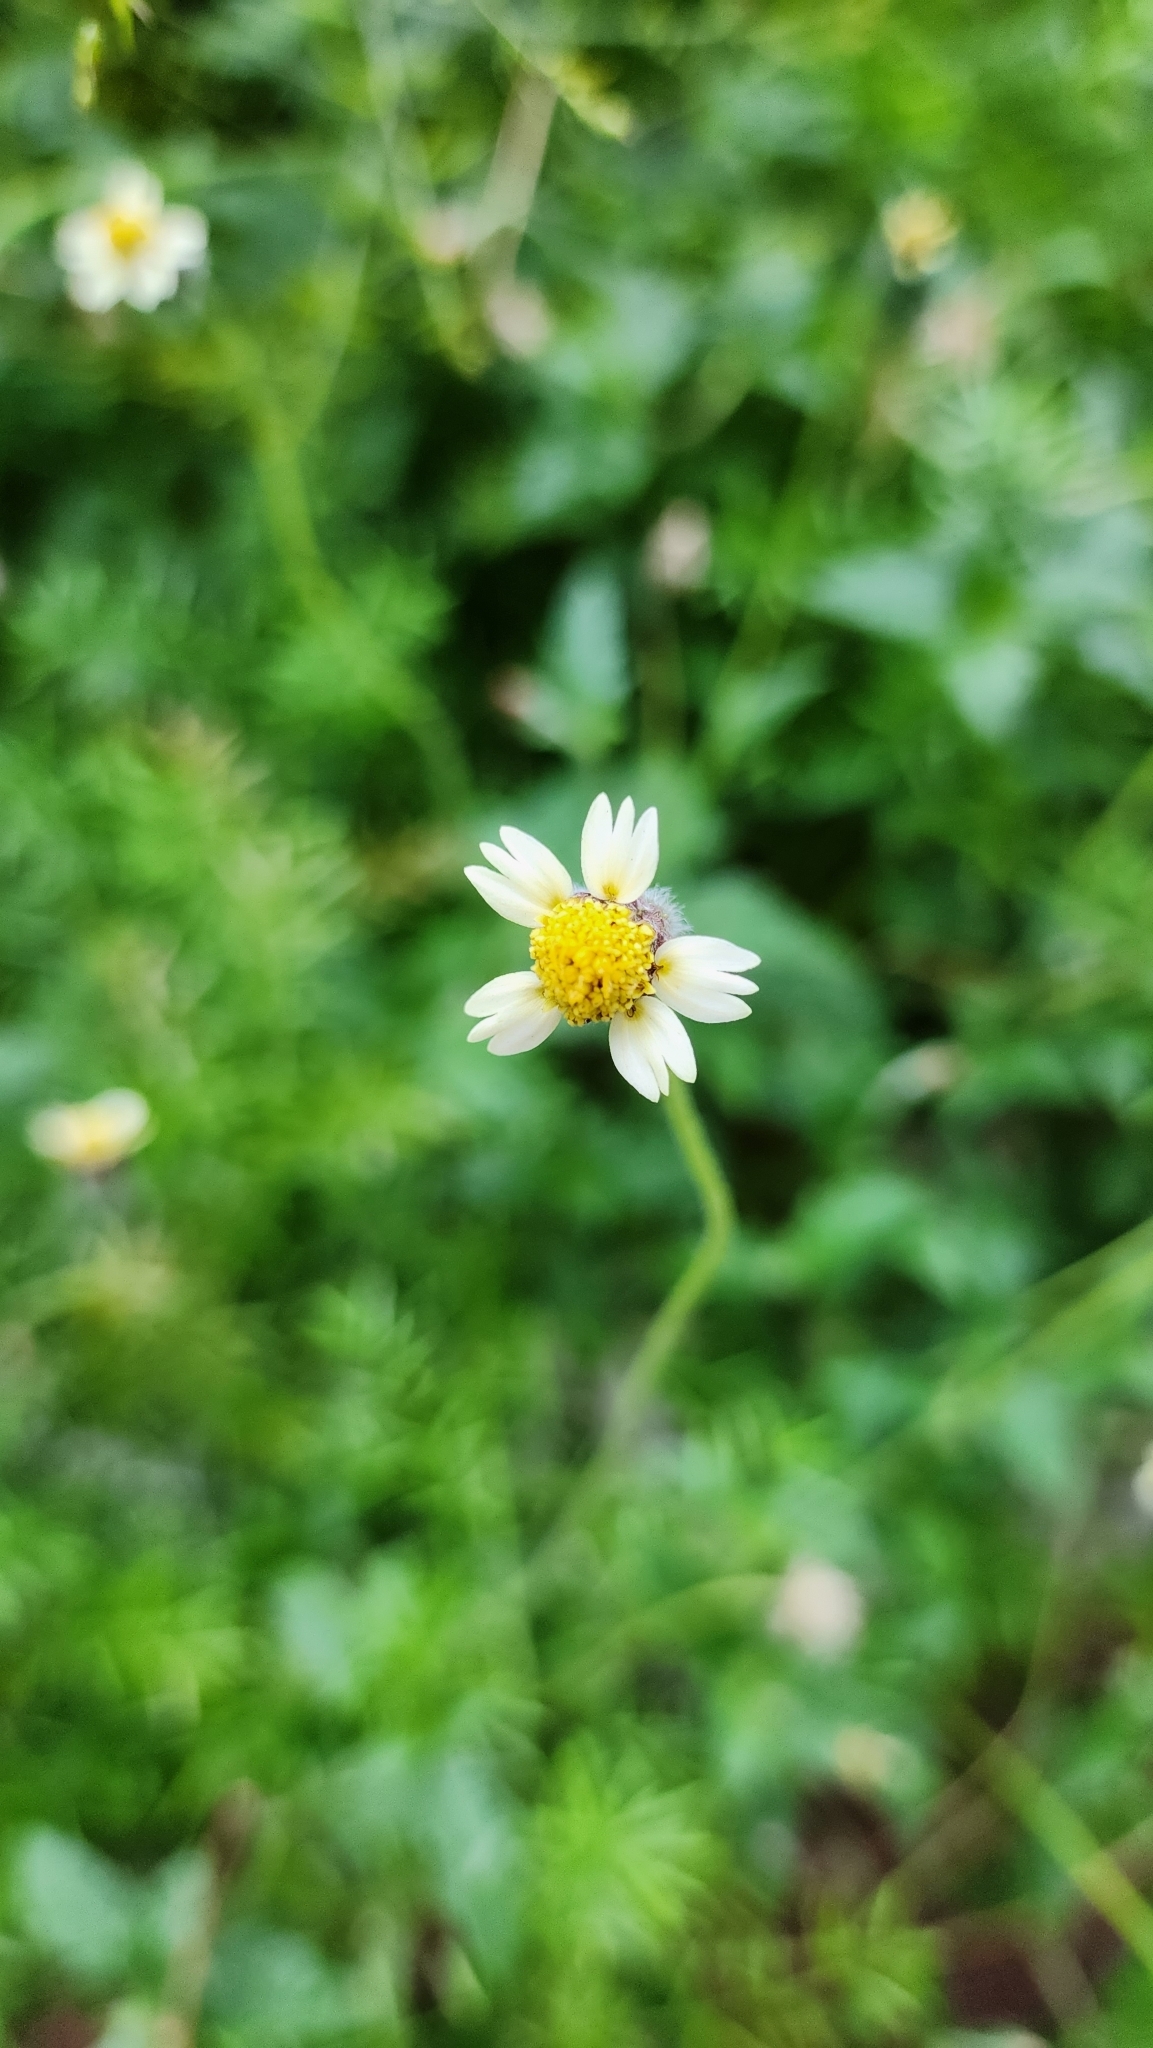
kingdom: Plantae
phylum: Tracheophyta
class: Magnoliopsida
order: Asterales
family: Asteraceae
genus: Tridax
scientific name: Tridax procumbens
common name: Coatbuttons
